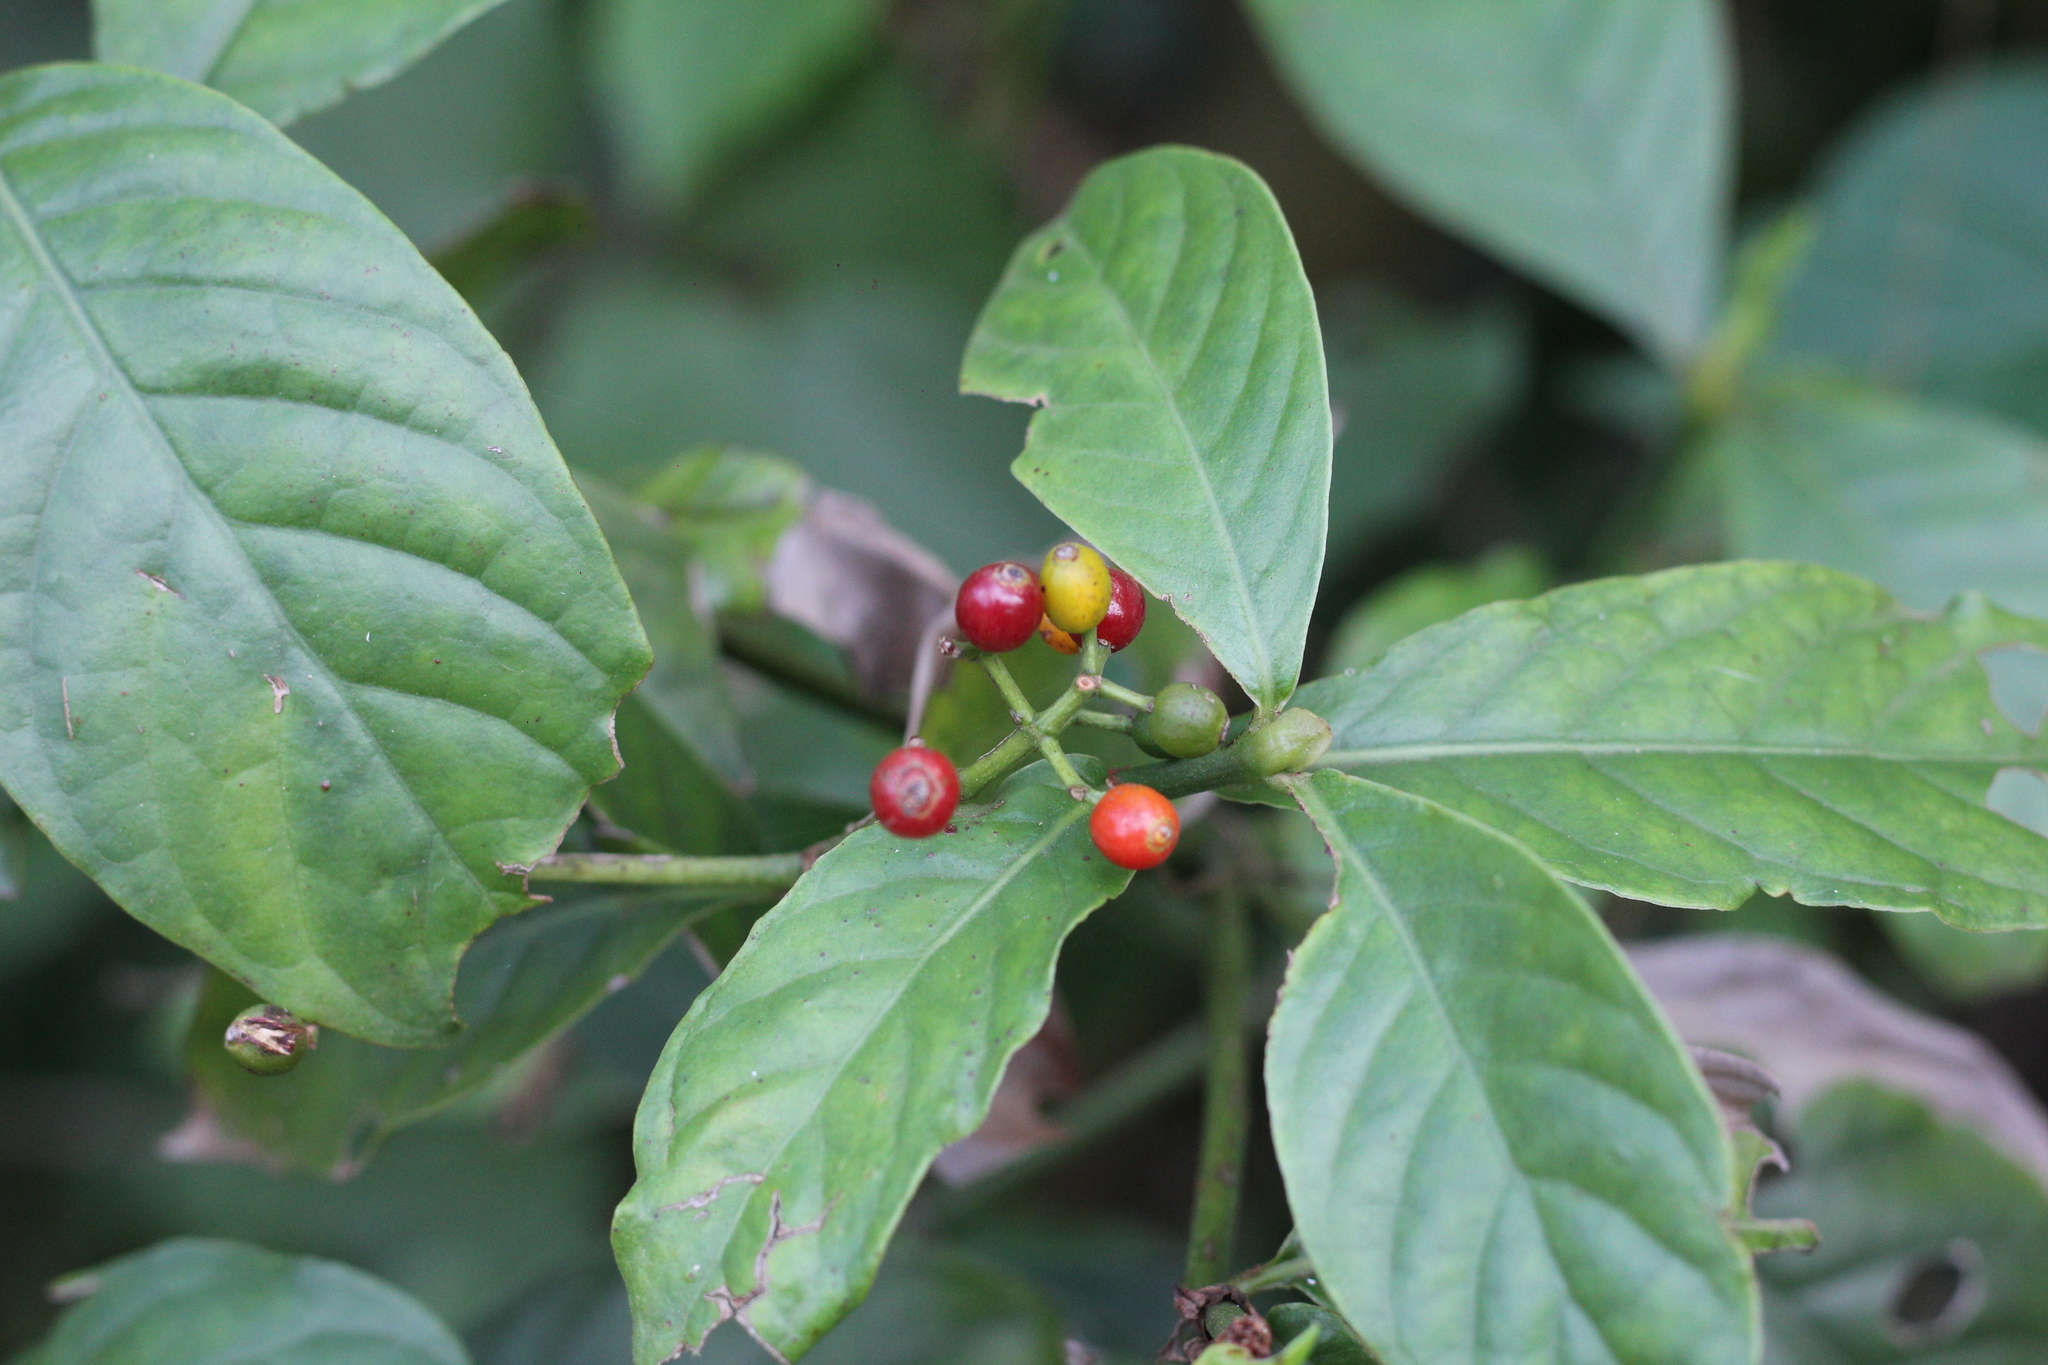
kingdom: Plantae
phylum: Tracheophyta
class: Magnoliopsida
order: Gentianales
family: Rubiaceae
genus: Psychotria
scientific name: Psychotria carthagenensis
